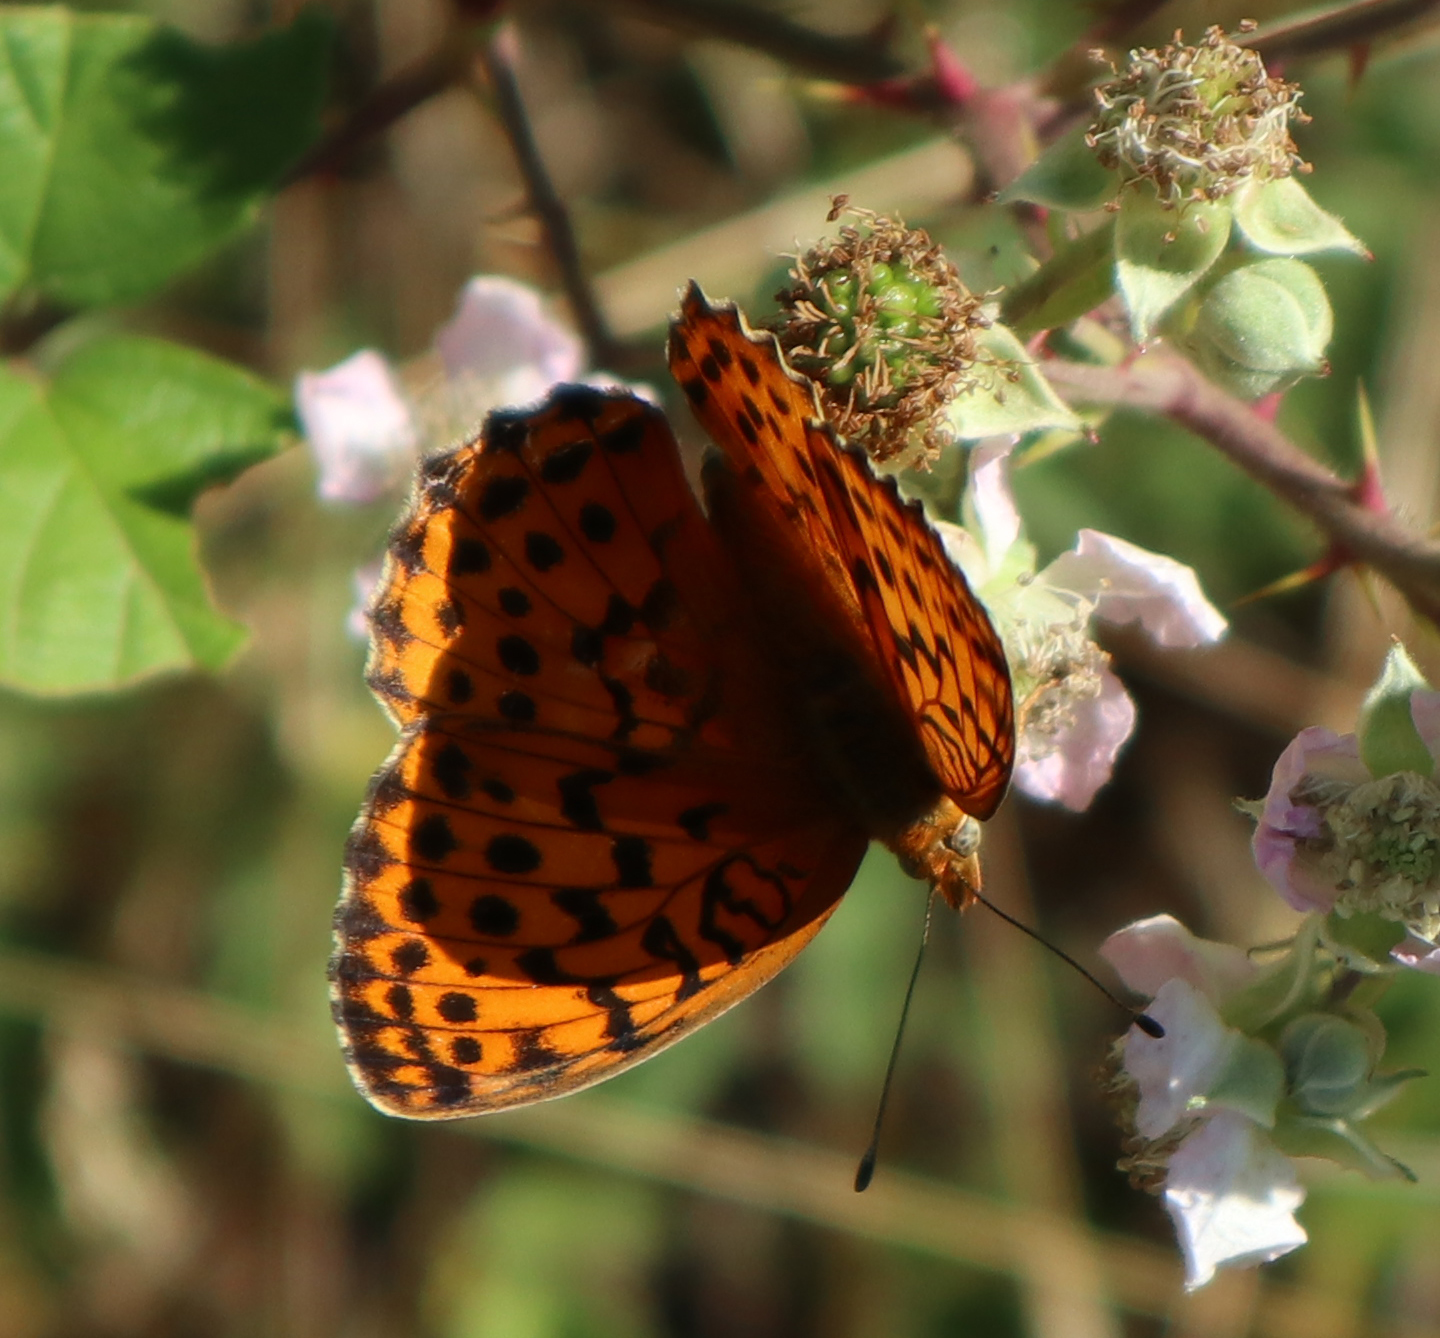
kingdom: Animalia
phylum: Arthropoda
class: Insecta
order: Lepidoptera
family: Nymphalidae
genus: Brenthis
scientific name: Brenthis daphne
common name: Marbled fritillary
